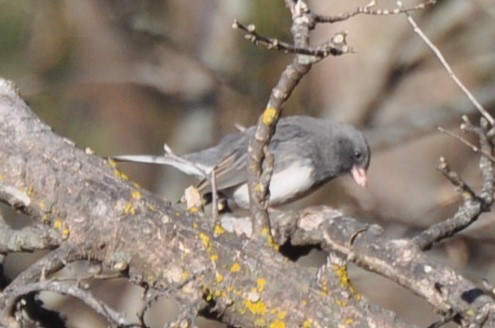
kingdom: Animalia
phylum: Chordata
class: Aves
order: Passeriformes
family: Passerellidae
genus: Junco
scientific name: Junco hyemalis
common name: Dark-eyed junco
